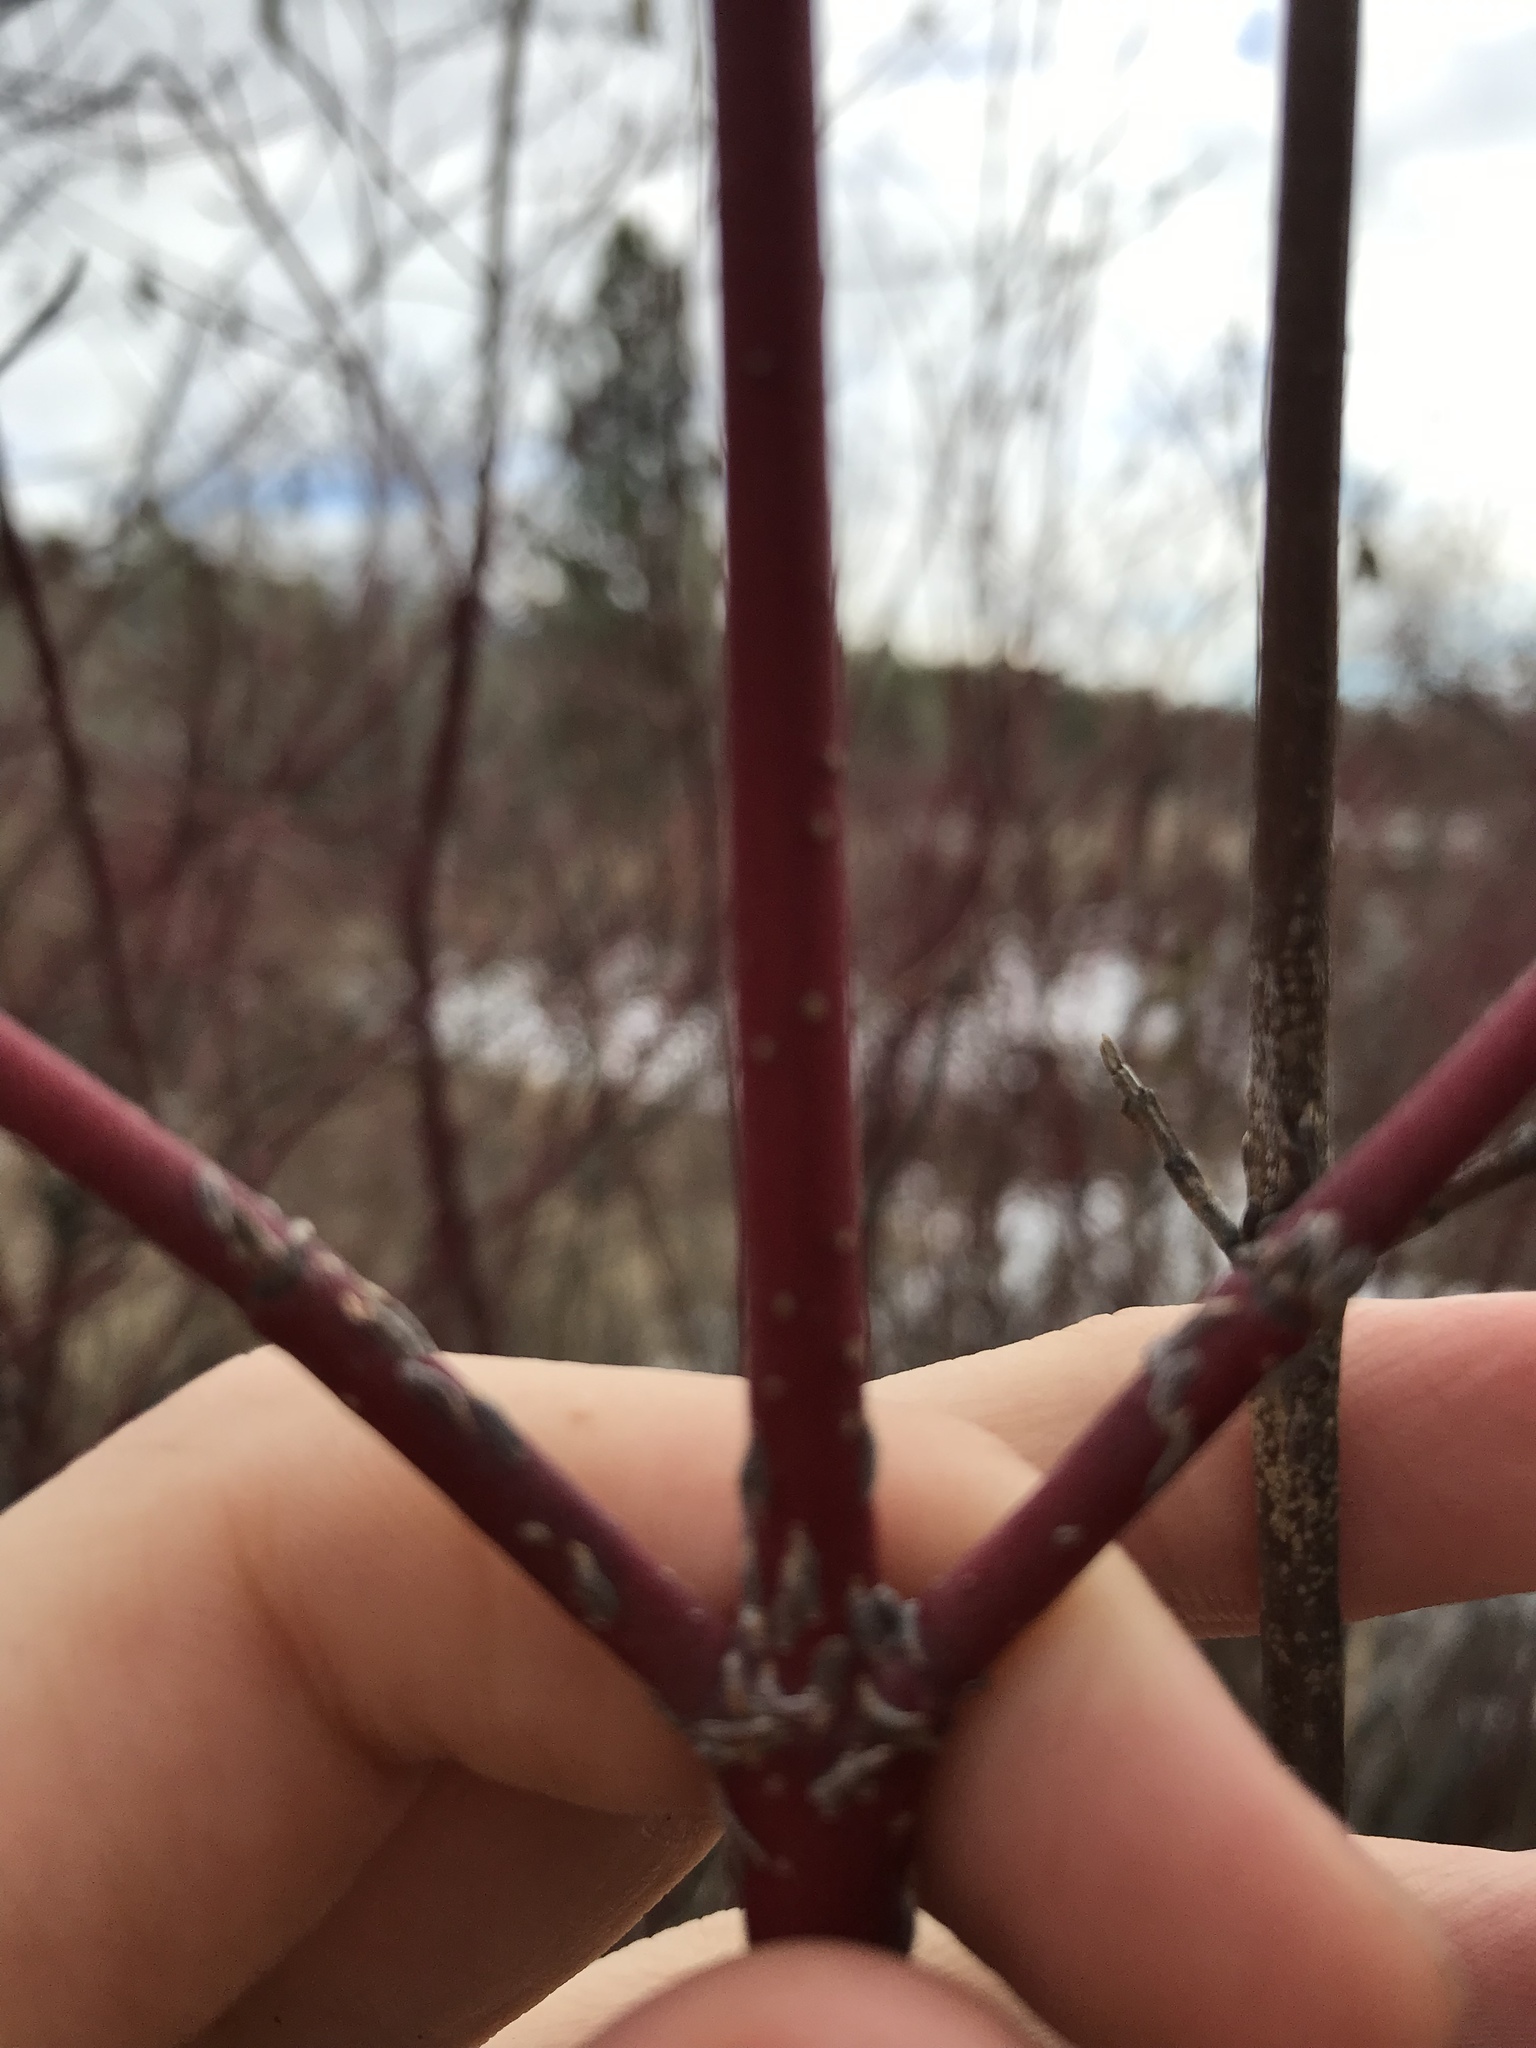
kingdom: Plantae
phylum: Tracheophyta
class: Magnoliopsida
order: Cornales
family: Cornaceae
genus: Cornus
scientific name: Cornus sericea
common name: Red-osier dogwood
